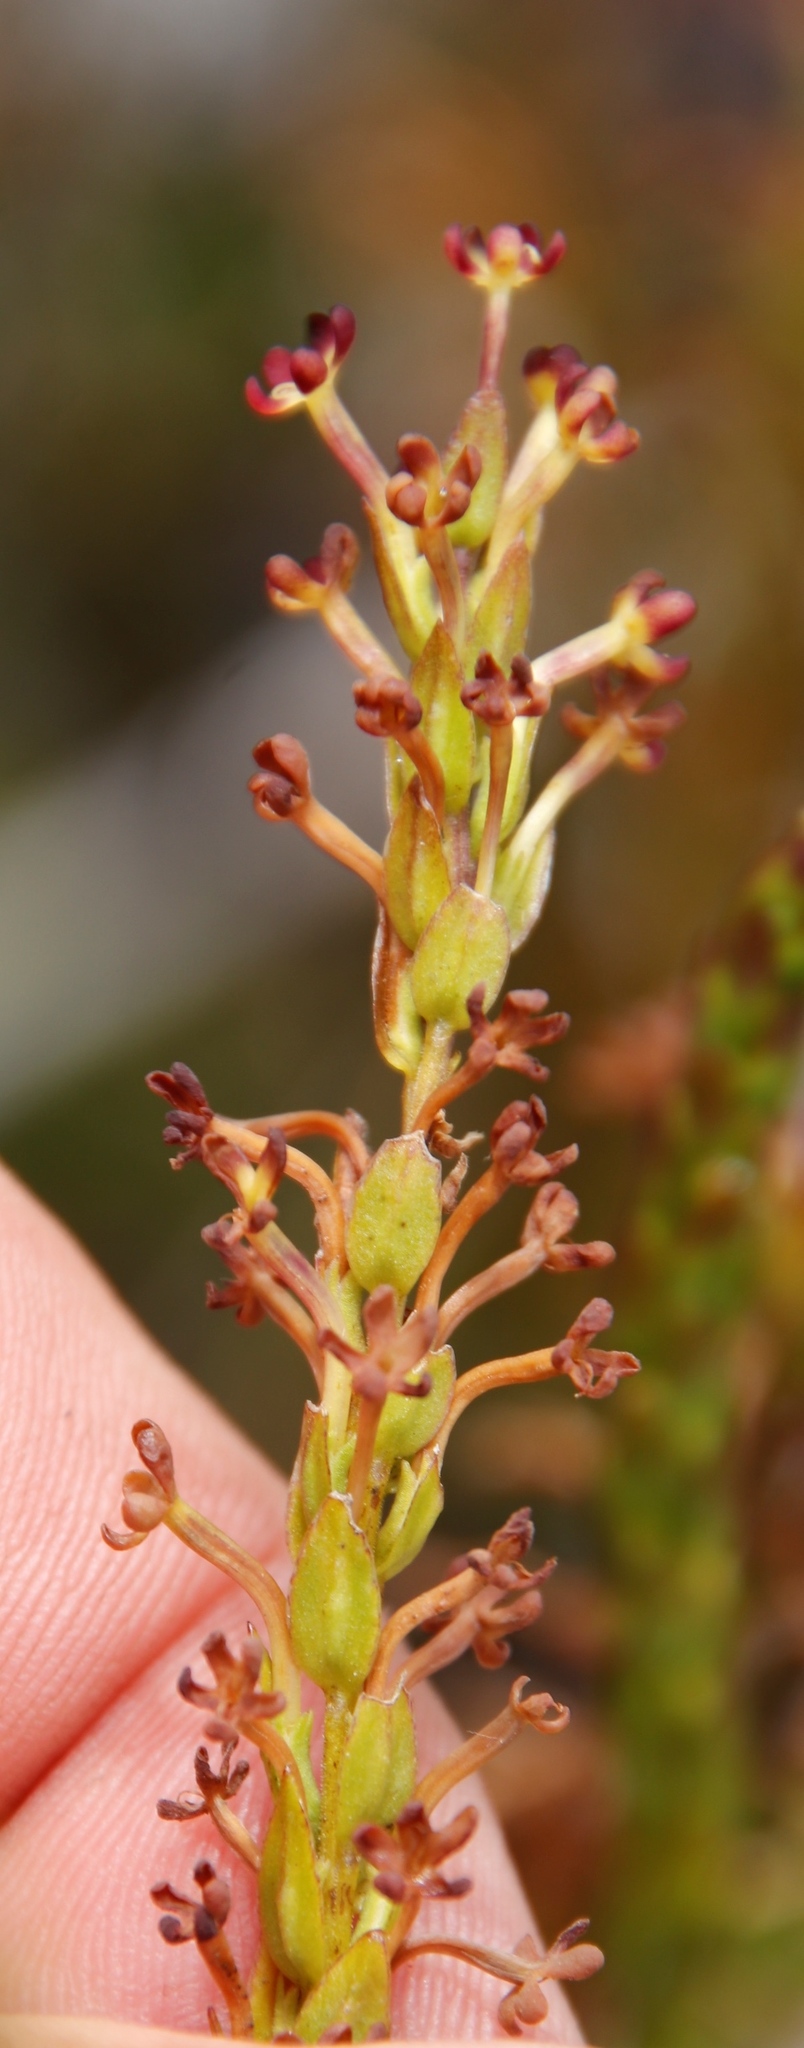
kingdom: Plantae
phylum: Tracheophyta
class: Magnoliopsida
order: Lamiales
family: Scrophulariaceae
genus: Microdon
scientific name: Microdon dubius
